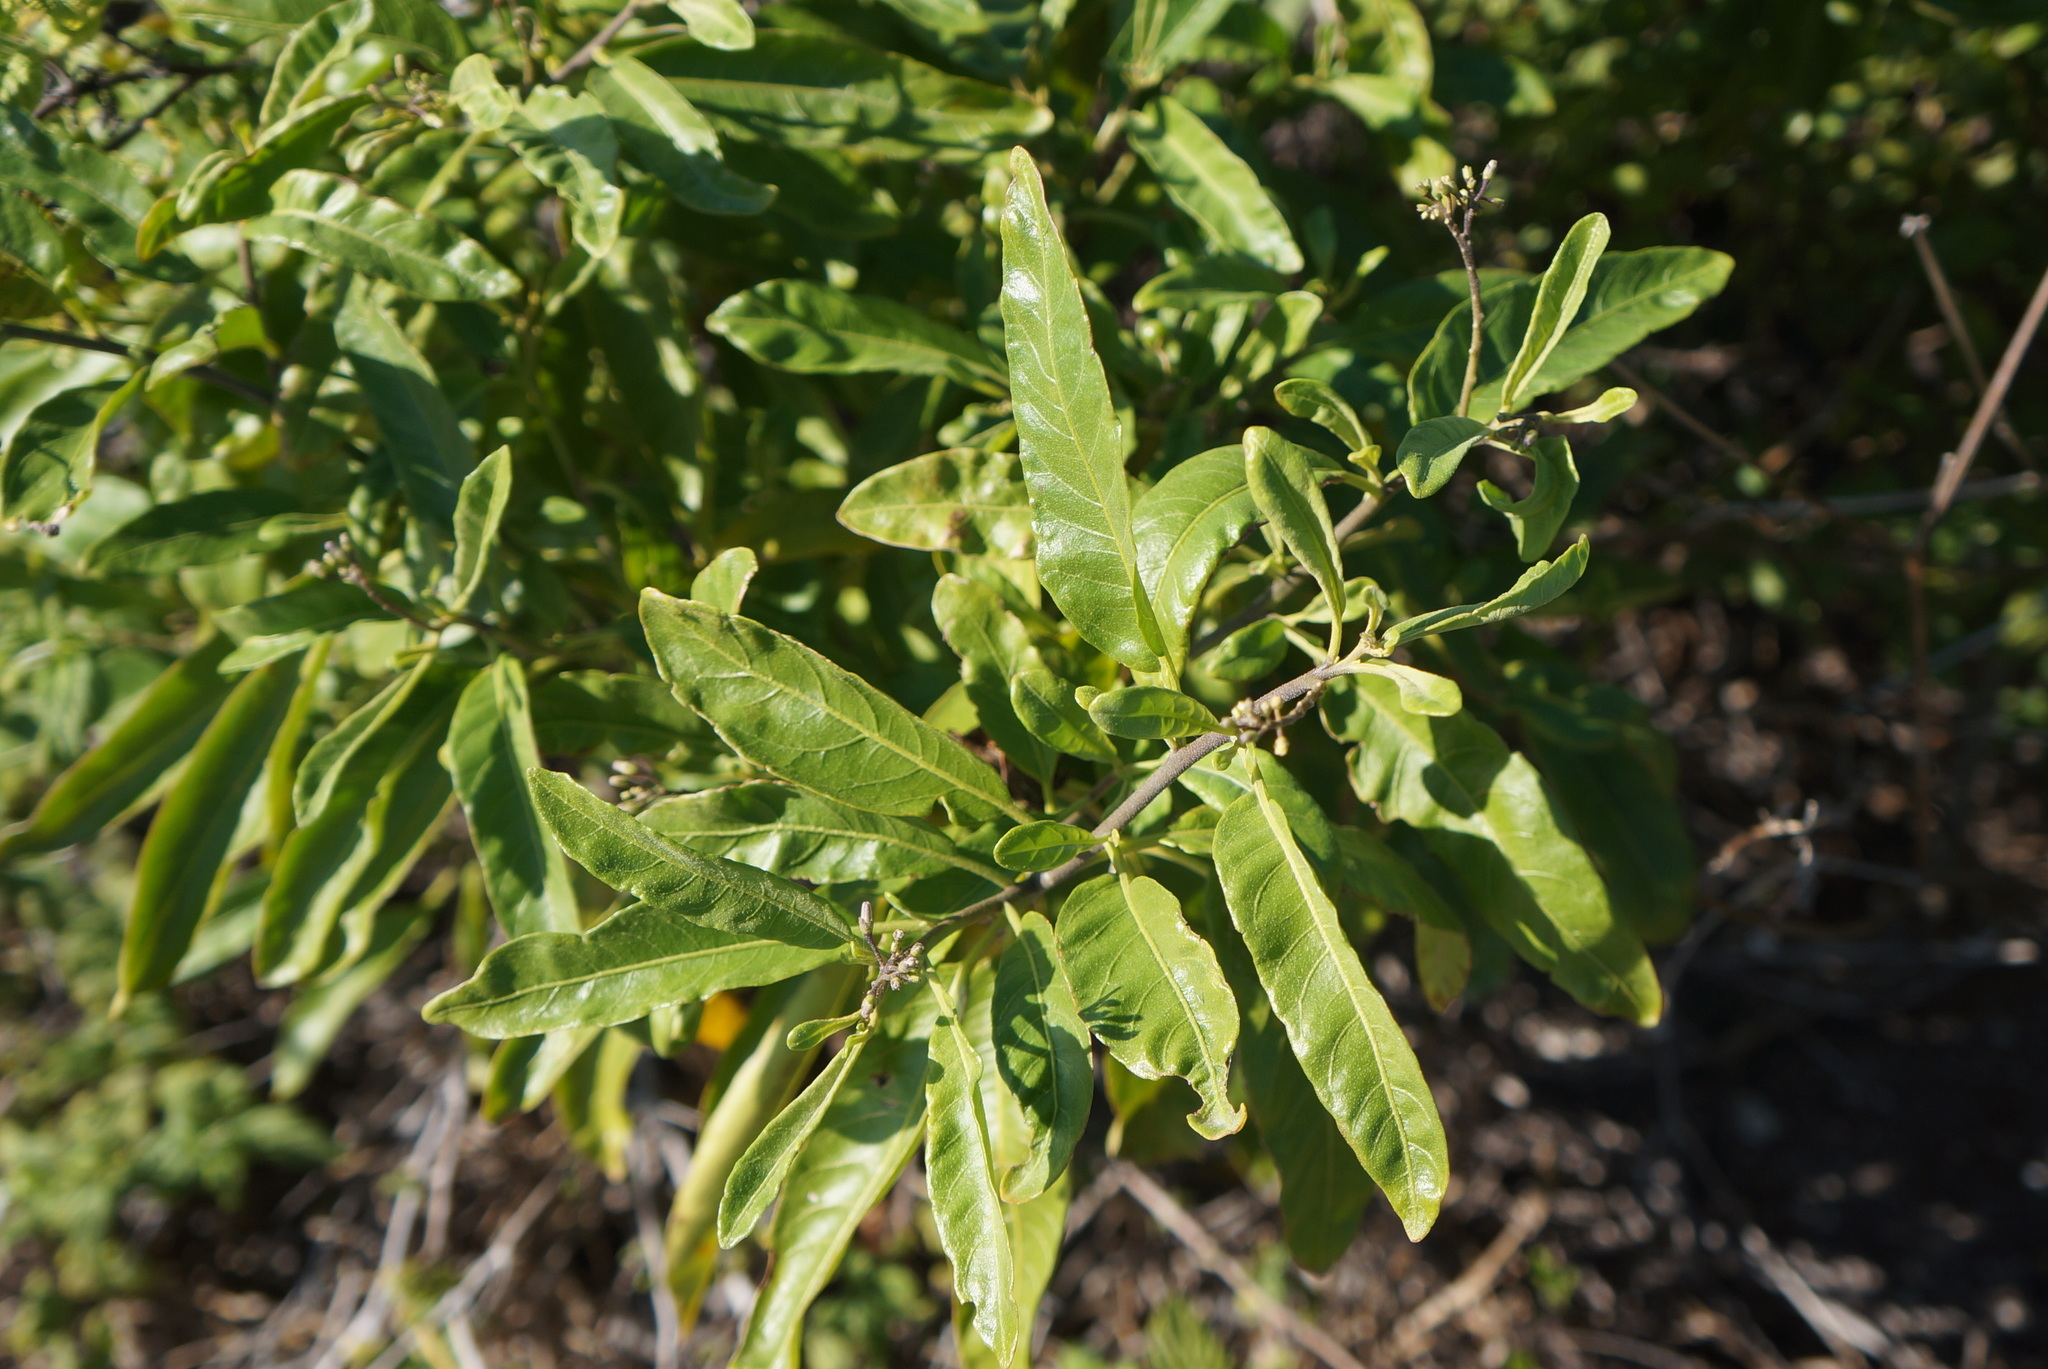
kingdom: Plantae
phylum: Tracheophyta
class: Magnoliopsida
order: Solanales
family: Solanaceae
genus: Solanum
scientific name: Solanum donianum
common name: Mullein nightshade
